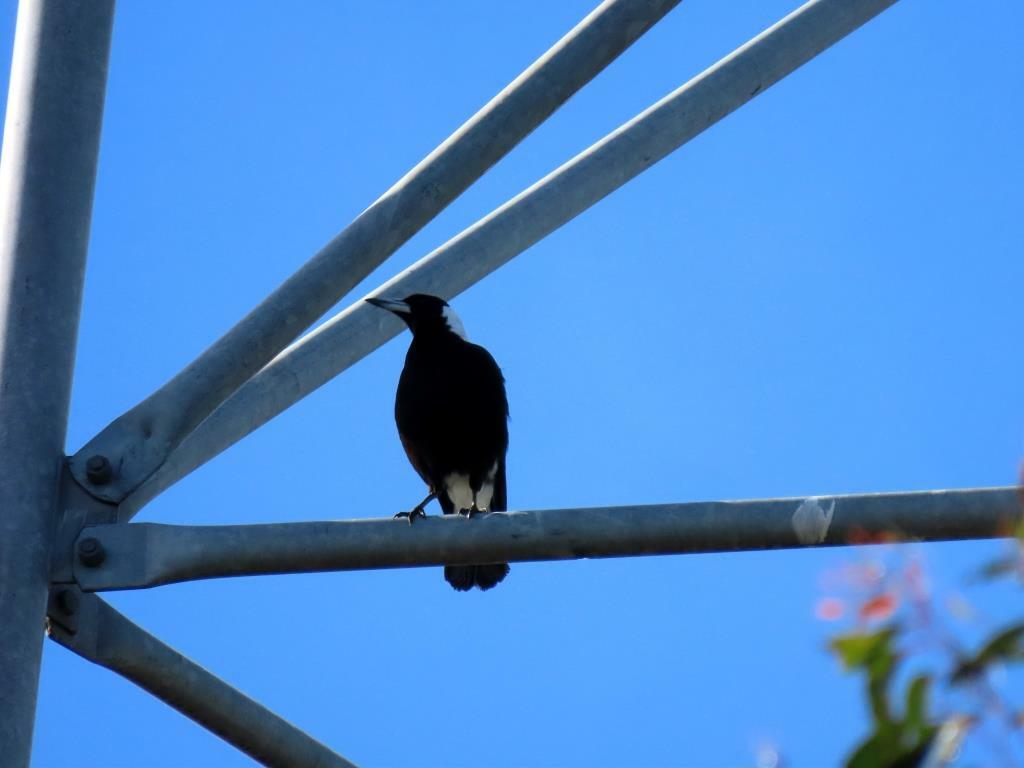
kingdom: Animalia
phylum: Chordata
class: Aves
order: Passeriformes
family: Cracticidae
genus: Gymnorhina
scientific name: Gymnorhina tibicen
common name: Australian magpie
